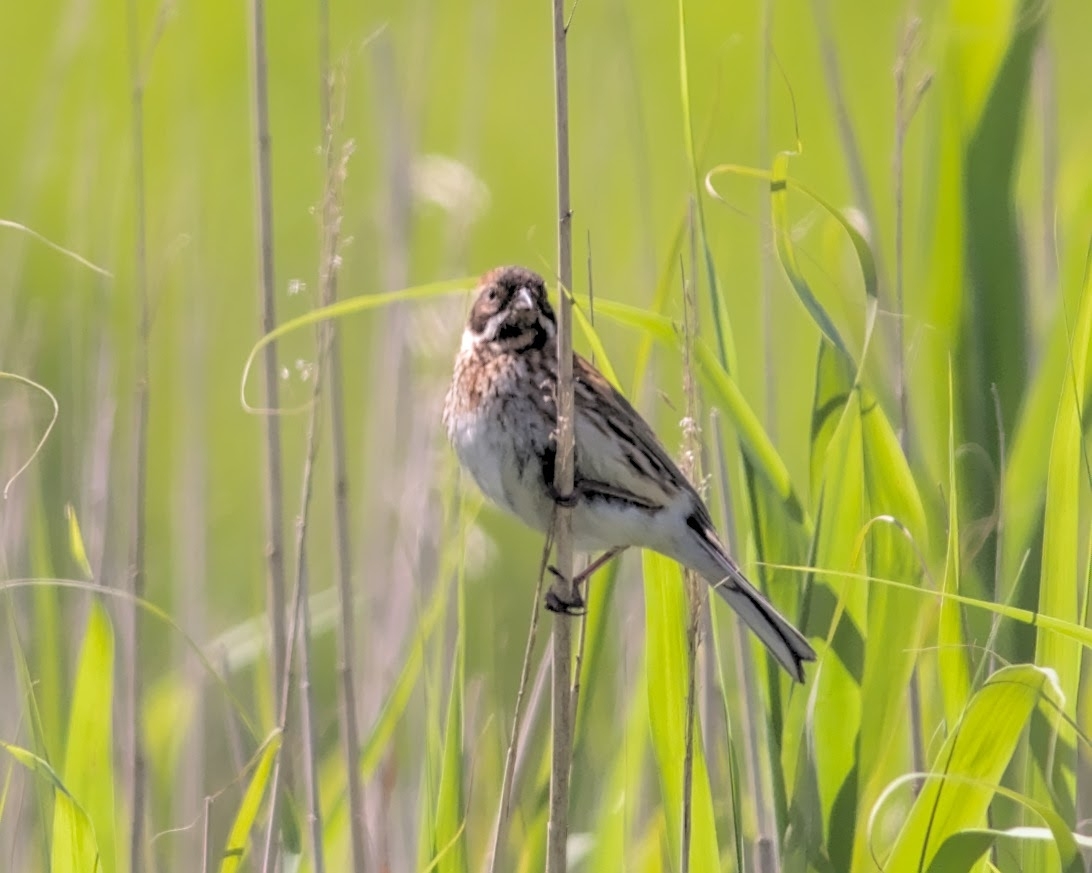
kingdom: Animalia
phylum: Chordata
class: Aves
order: Passeriformes
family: Emberizidae
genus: Emberiza
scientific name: Emberiza schoeniclus
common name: Reed bunting
